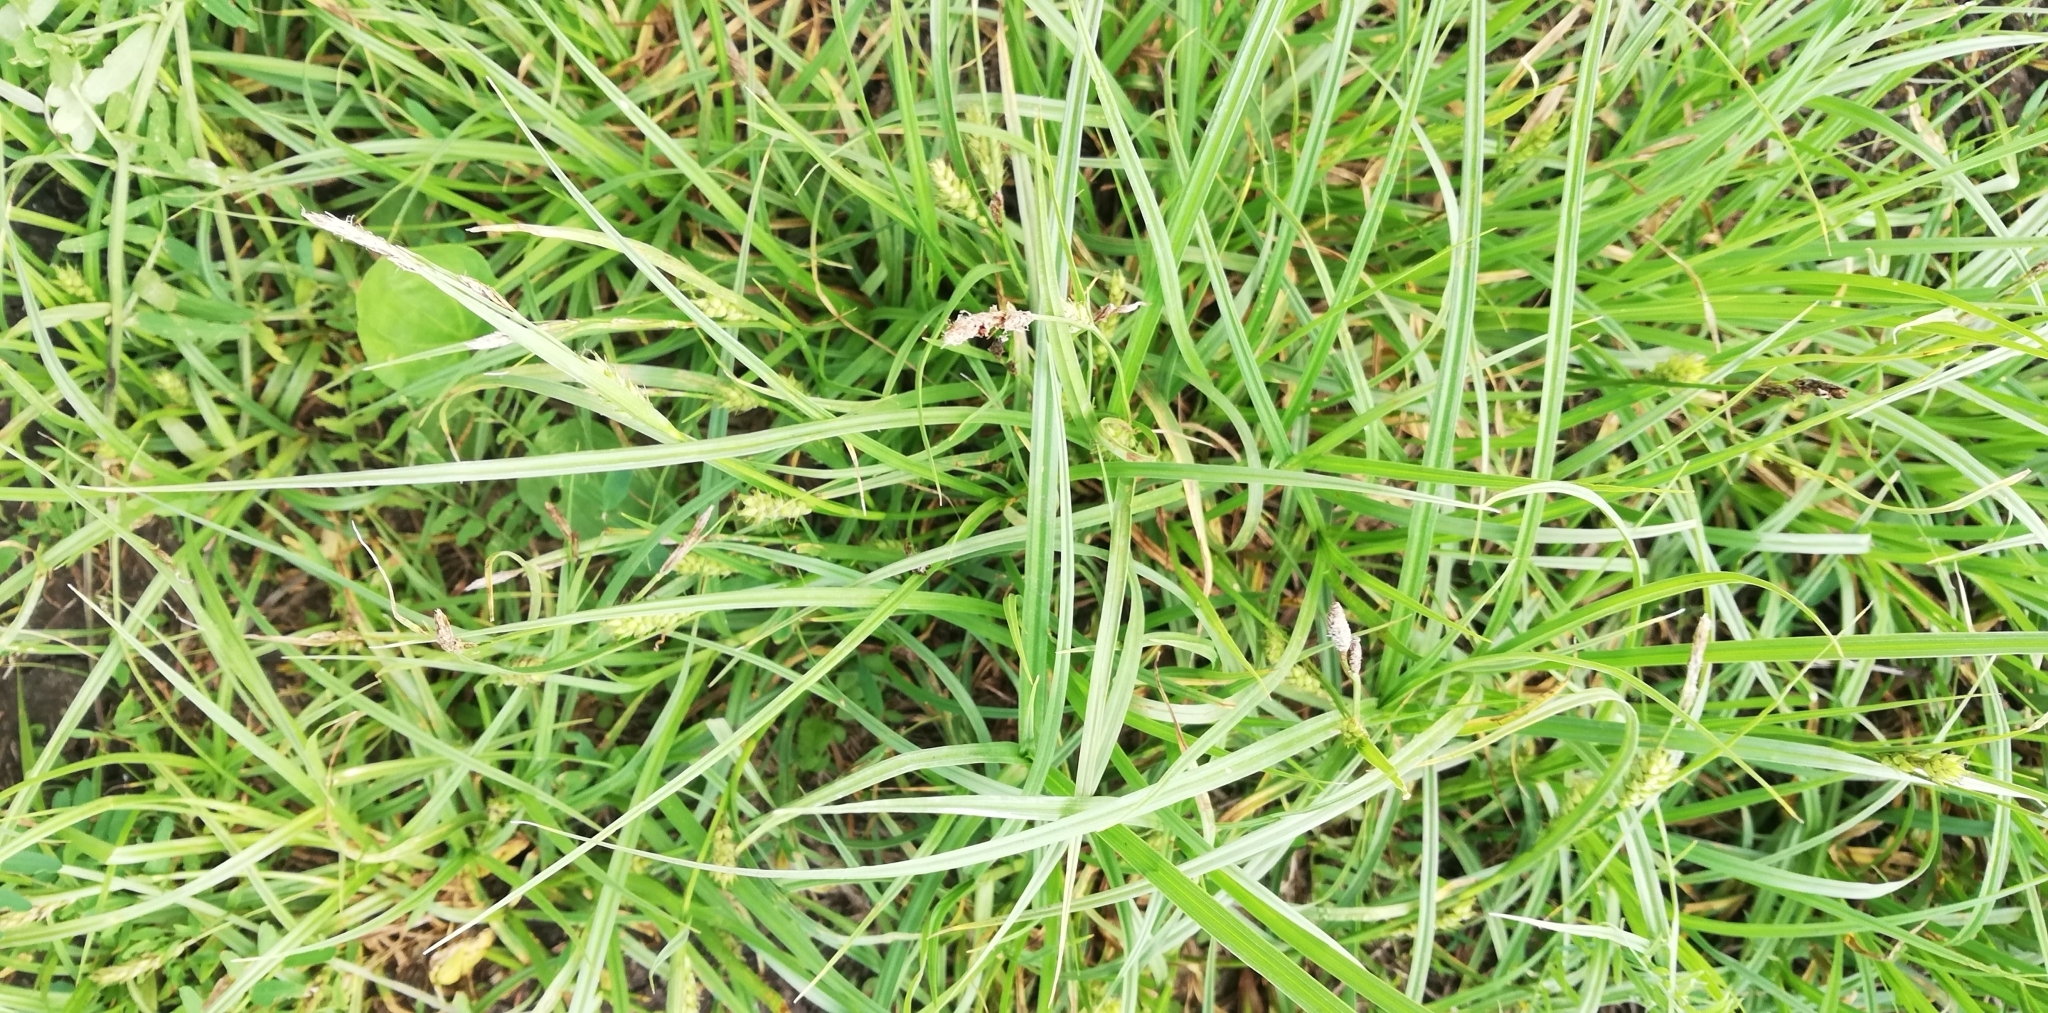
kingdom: Plantae
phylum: Tracheophyta
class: Liliopsida
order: Poales
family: Cyperaceae
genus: Carex
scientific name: Carex hirta
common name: Hairy sedge
